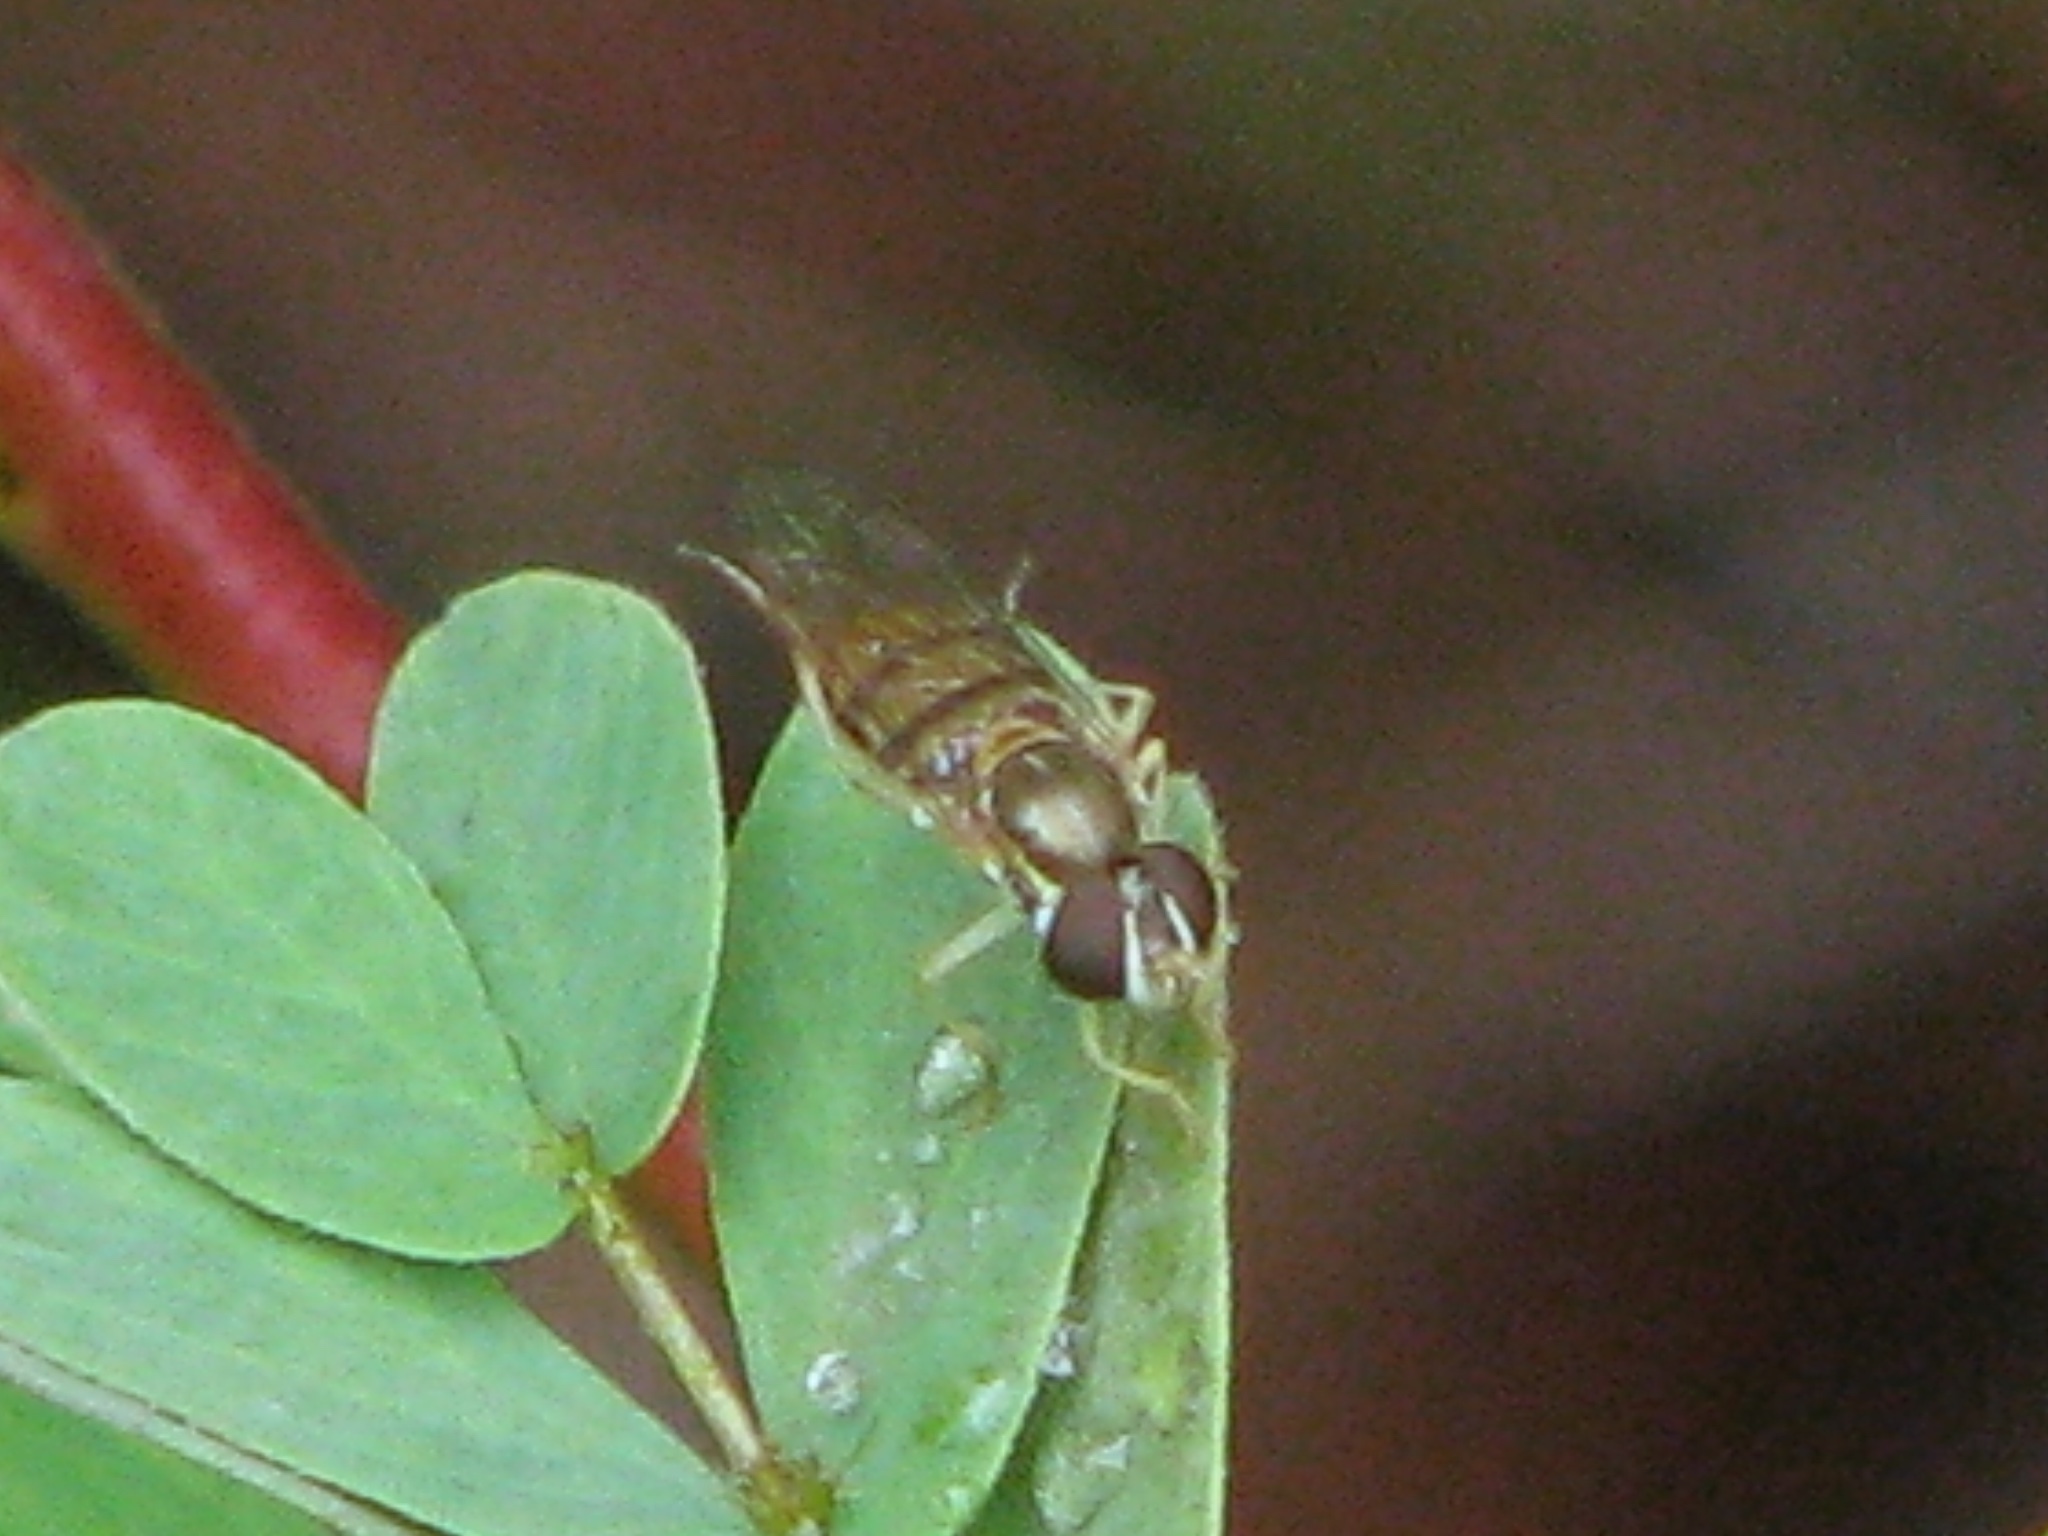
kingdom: Animalia
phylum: Arthropoda
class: Insecta
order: Diptera
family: Syrphidae
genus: Toxomerus
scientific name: Toxomerus marginatus
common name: Syrphid fly
